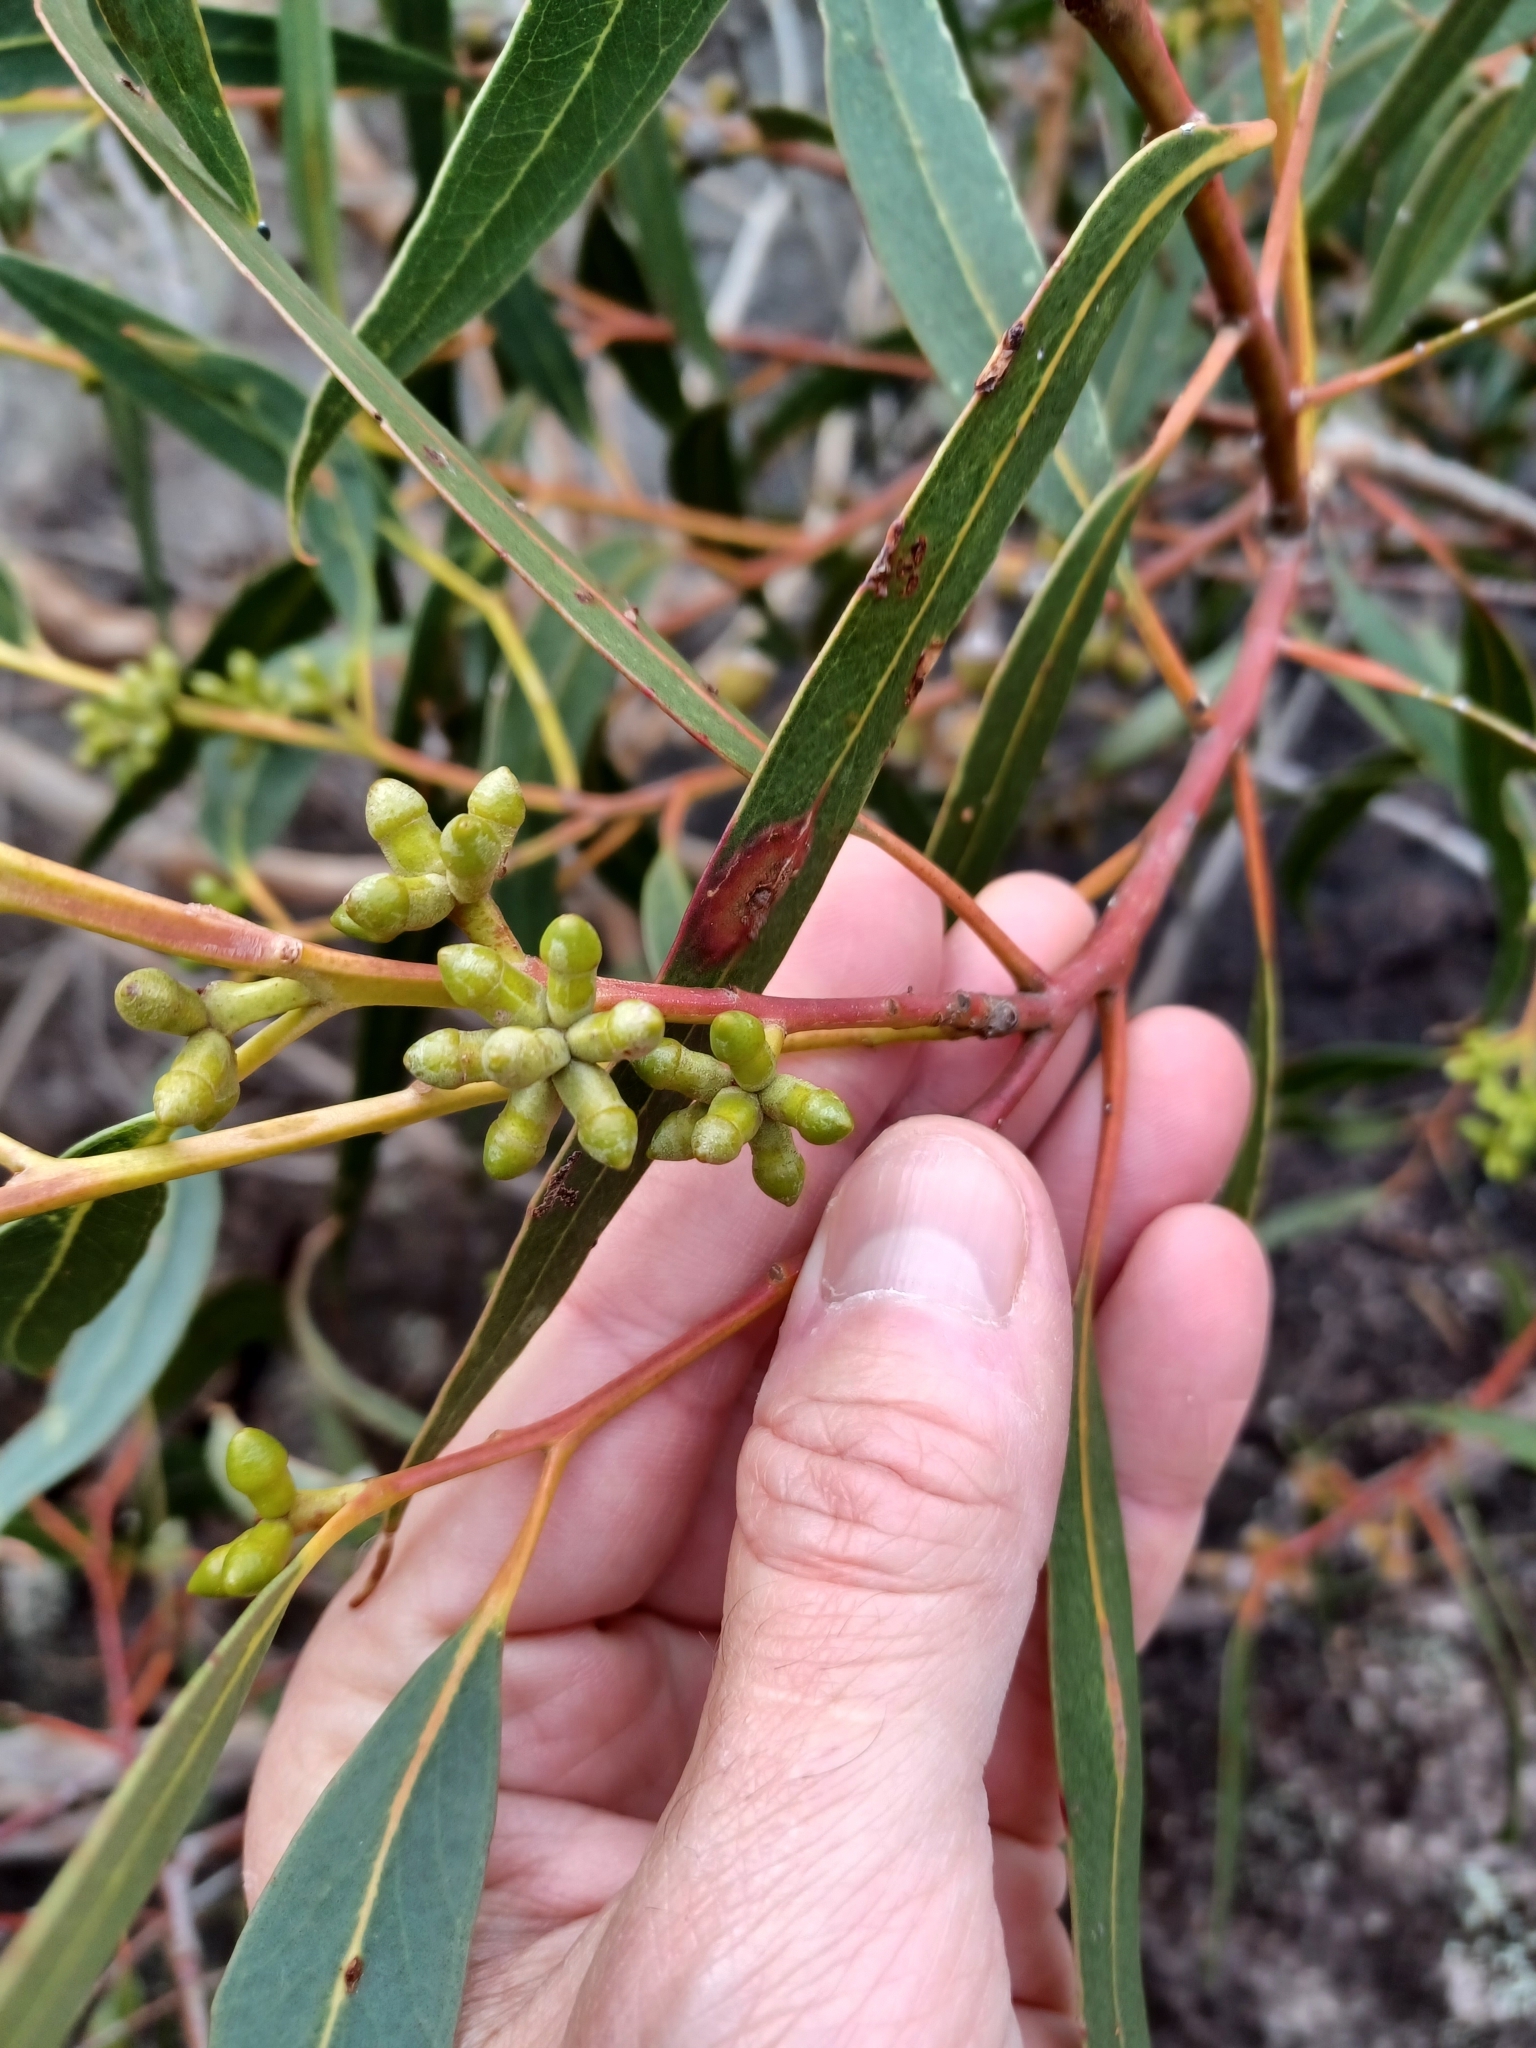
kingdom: Plantae
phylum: Tracheophyta
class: Magnoliopsida
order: Myrtales
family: Myrtaceae
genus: Eucalyptus
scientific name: Eucalyptus goniocalyx
